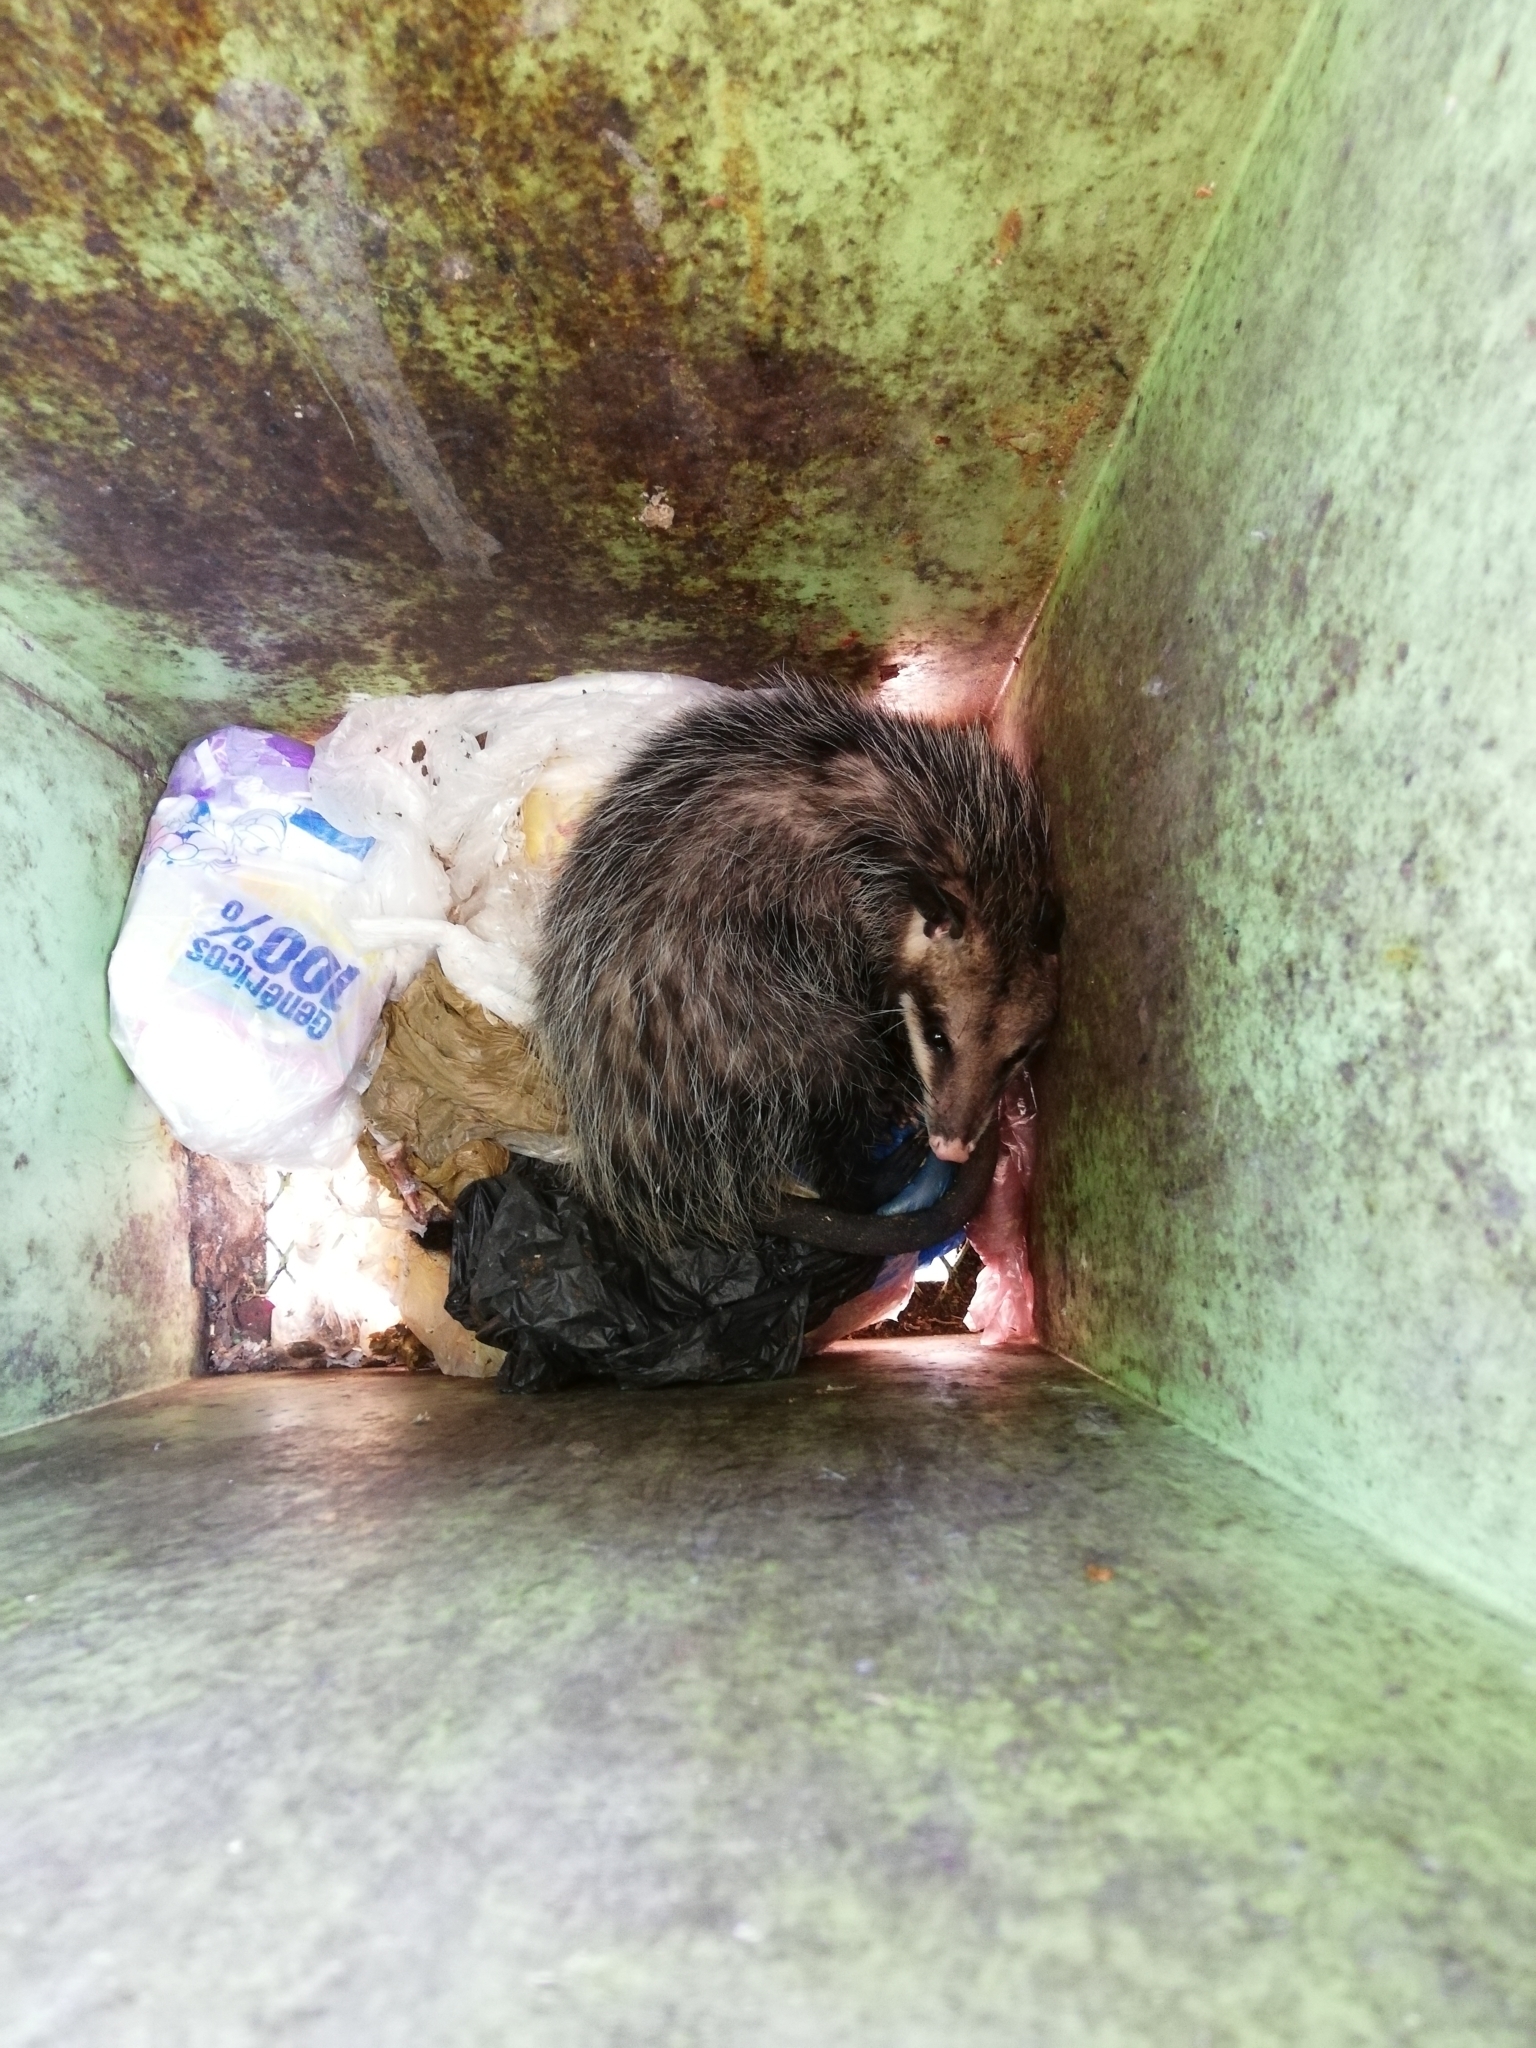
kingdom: Animalia
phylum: Chordata
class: Mammalia
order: Didelphimorphia
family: Didelphidae
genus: Didelphis
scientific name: Didelphis virginiana
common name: Virginia opossum
